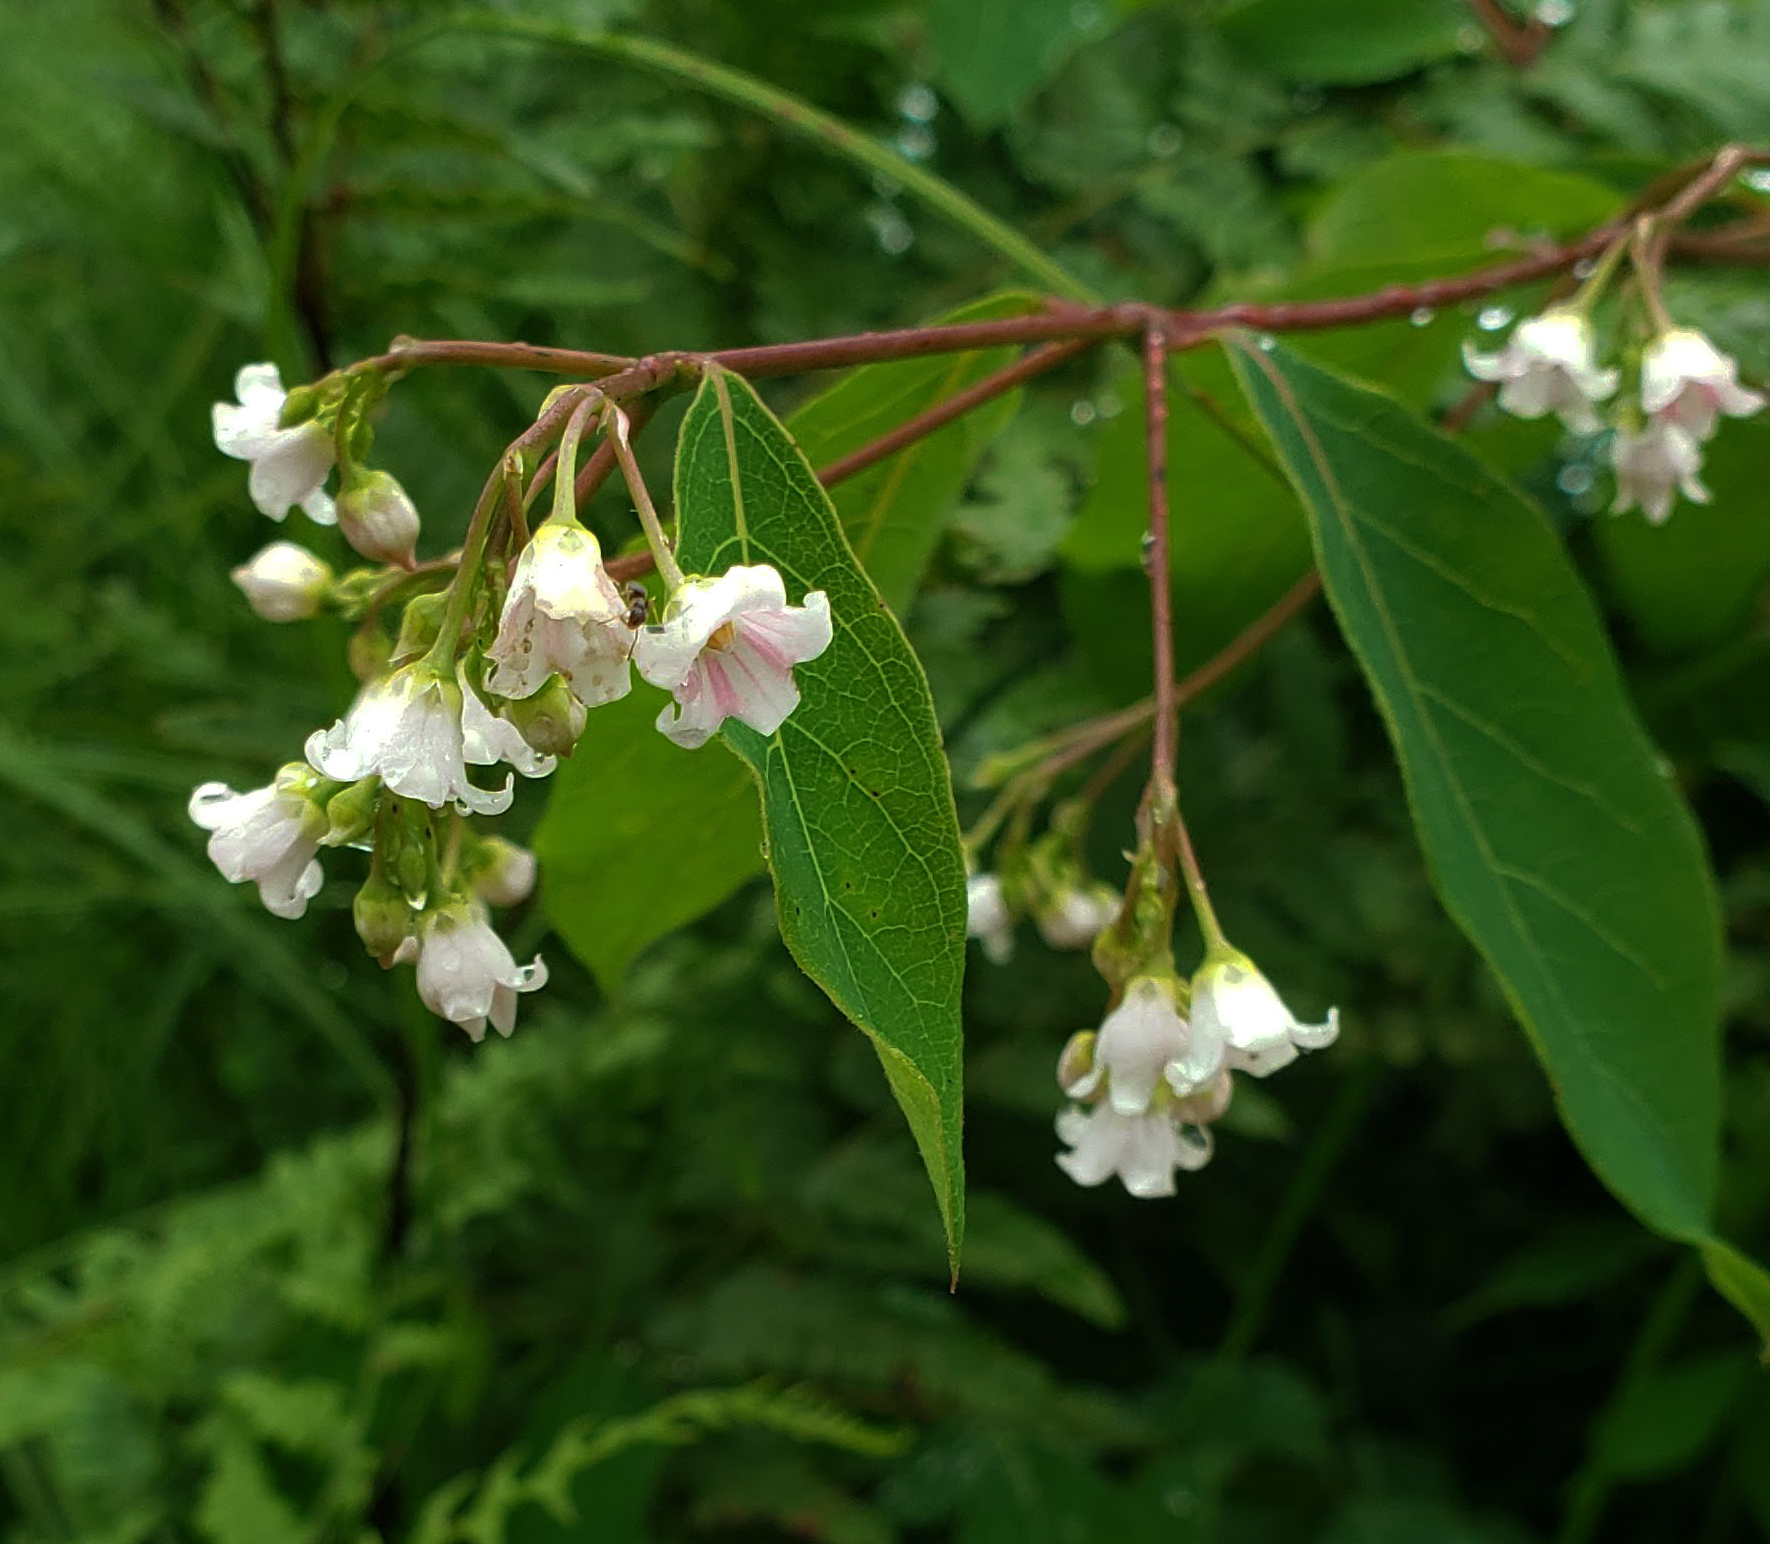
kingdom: Plantae
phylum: Tracheophyta
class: Magnoliopsida
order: Gentianales
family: Apocynaceae
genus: Apocynum
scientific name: Apocynum androsaemifolium
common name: Spreading dogbane
